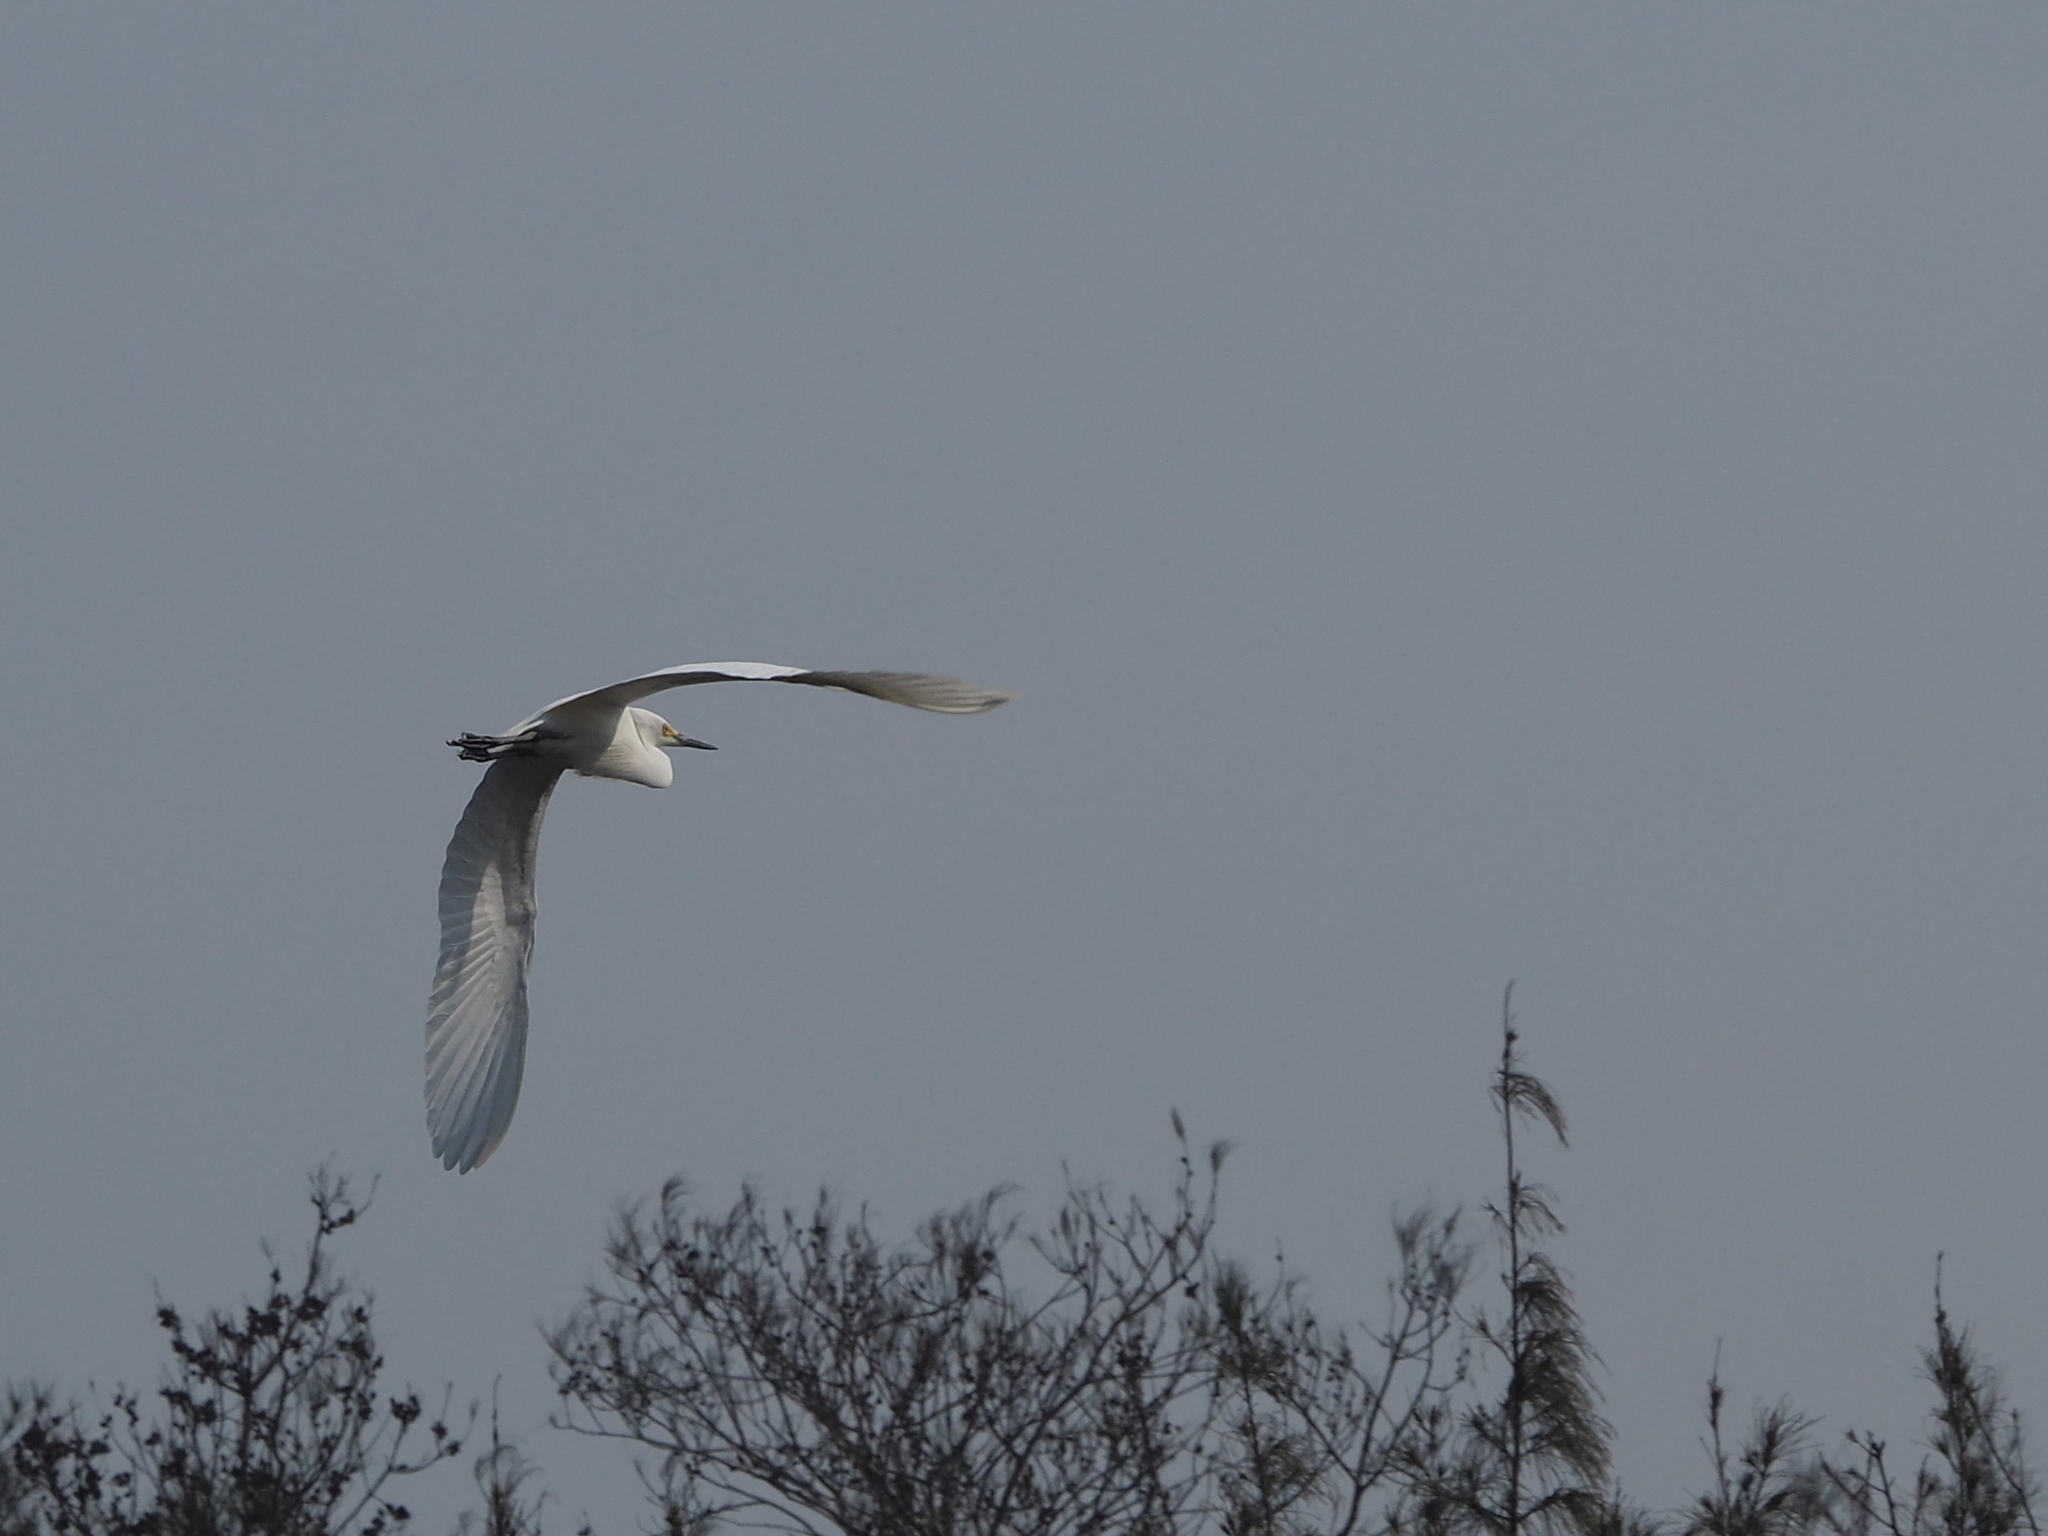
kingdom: Animalia
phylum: Chordata
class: Aves
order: Pelecaniformes
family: Ardeidae
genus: Egretta
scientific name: Egretta intermedia
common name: Intermediate egret
